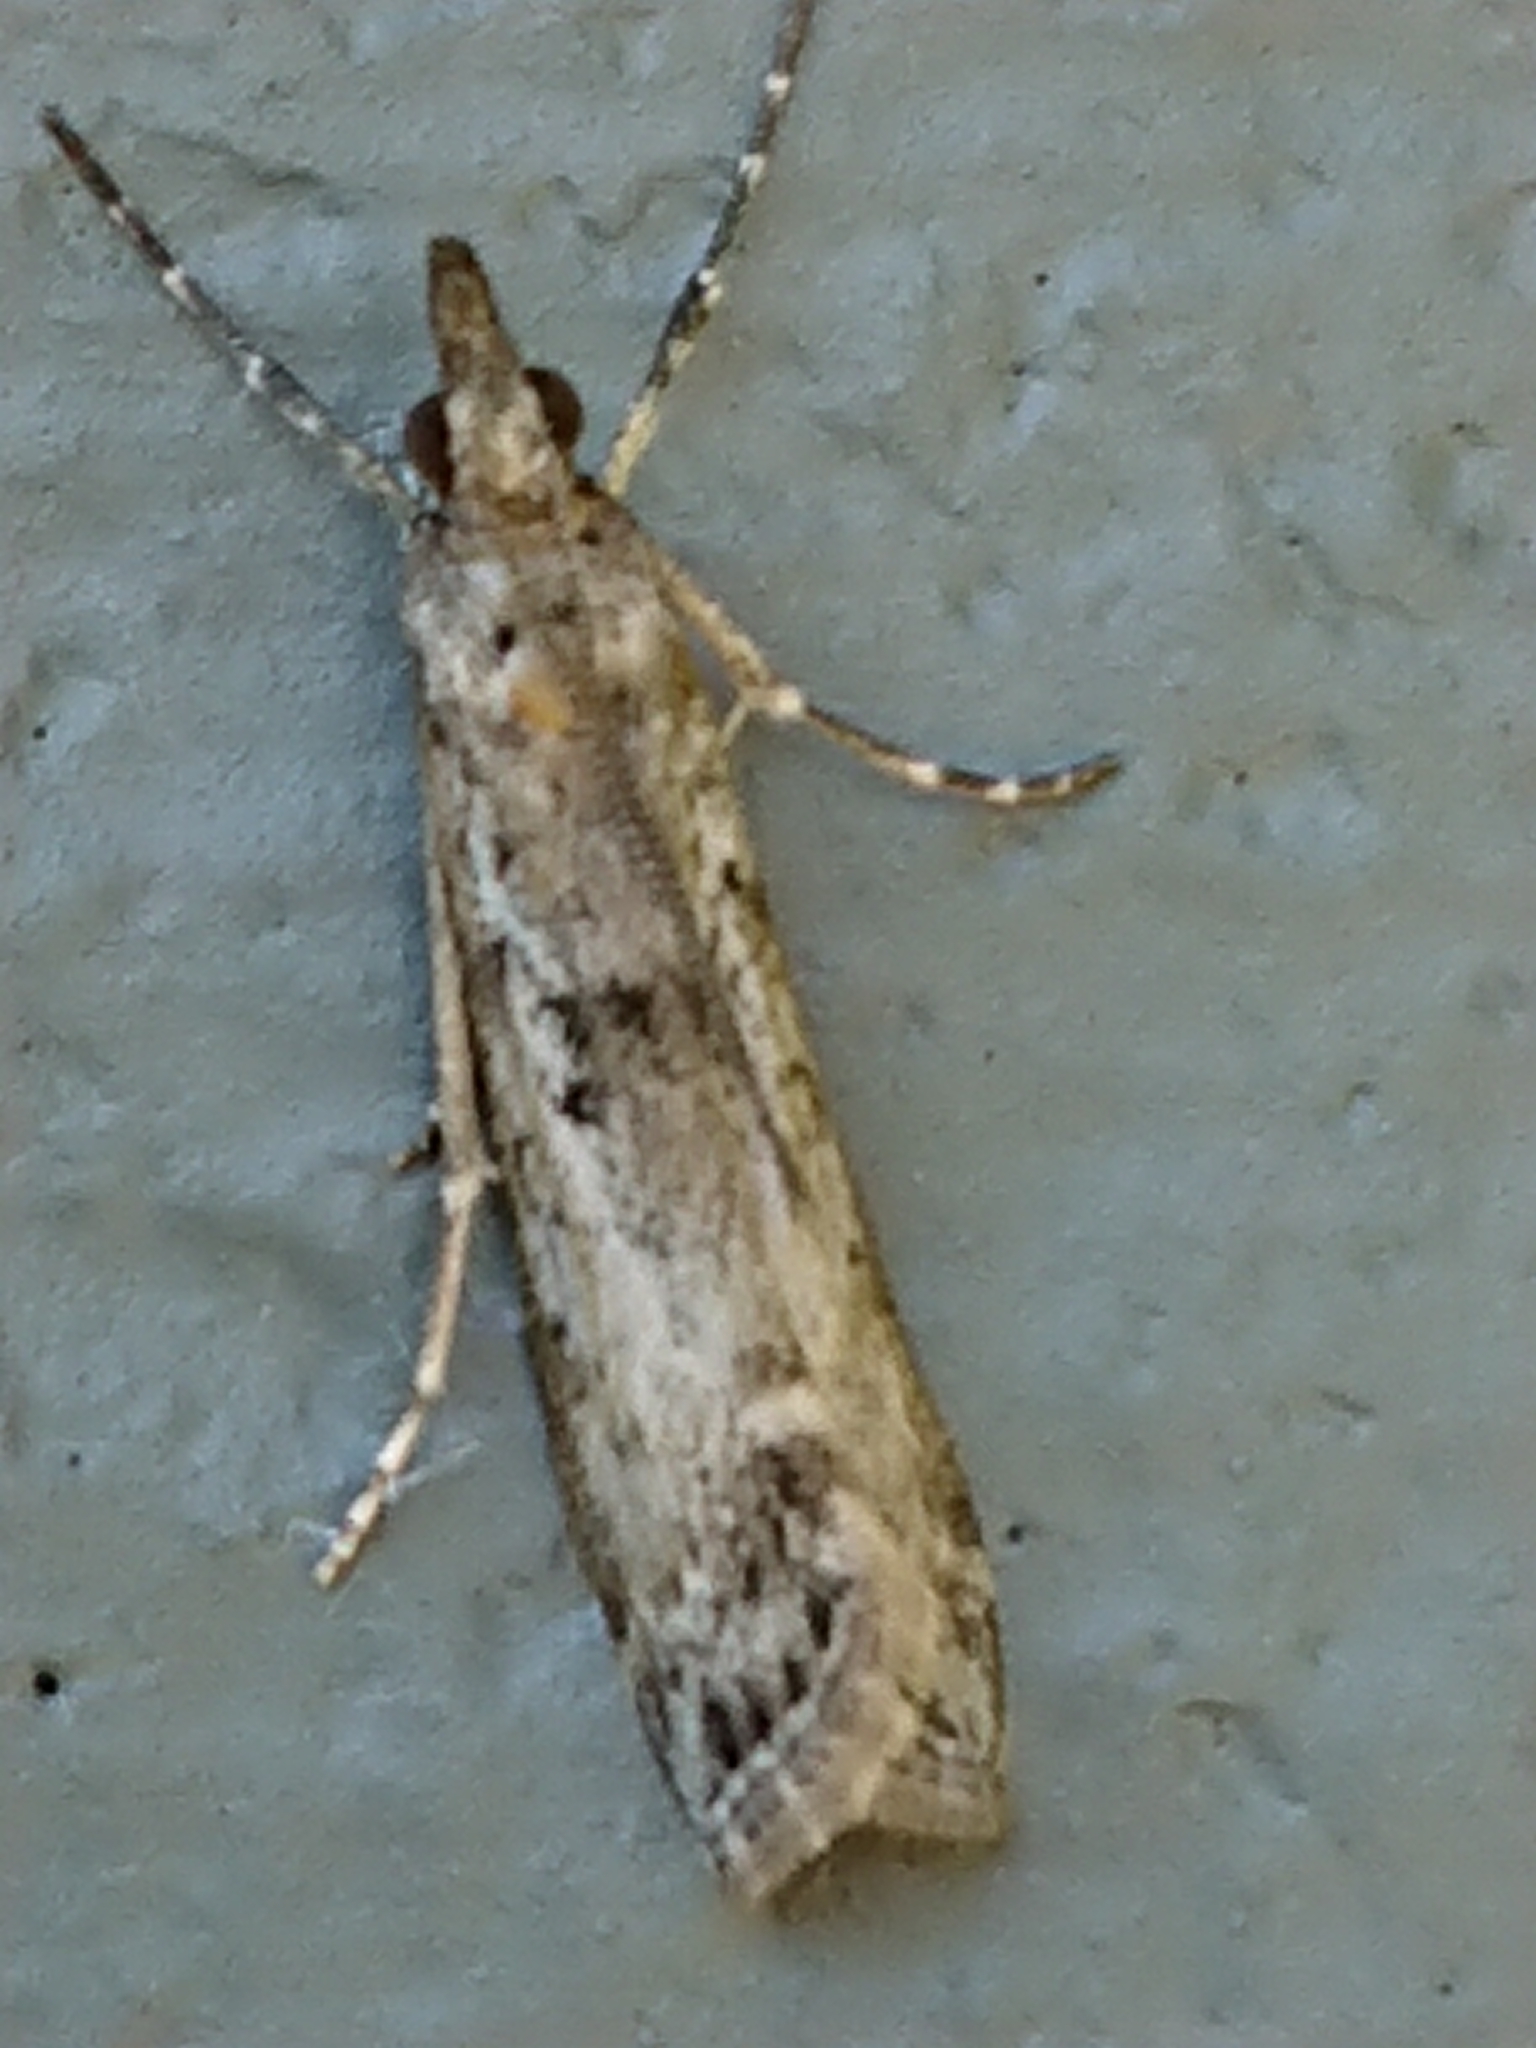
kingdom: Animalia
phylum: Arthropoda
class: Insecta
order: Lepidoptera
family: Crambidae
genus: Eudonia
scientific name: Eudonia leptalea
